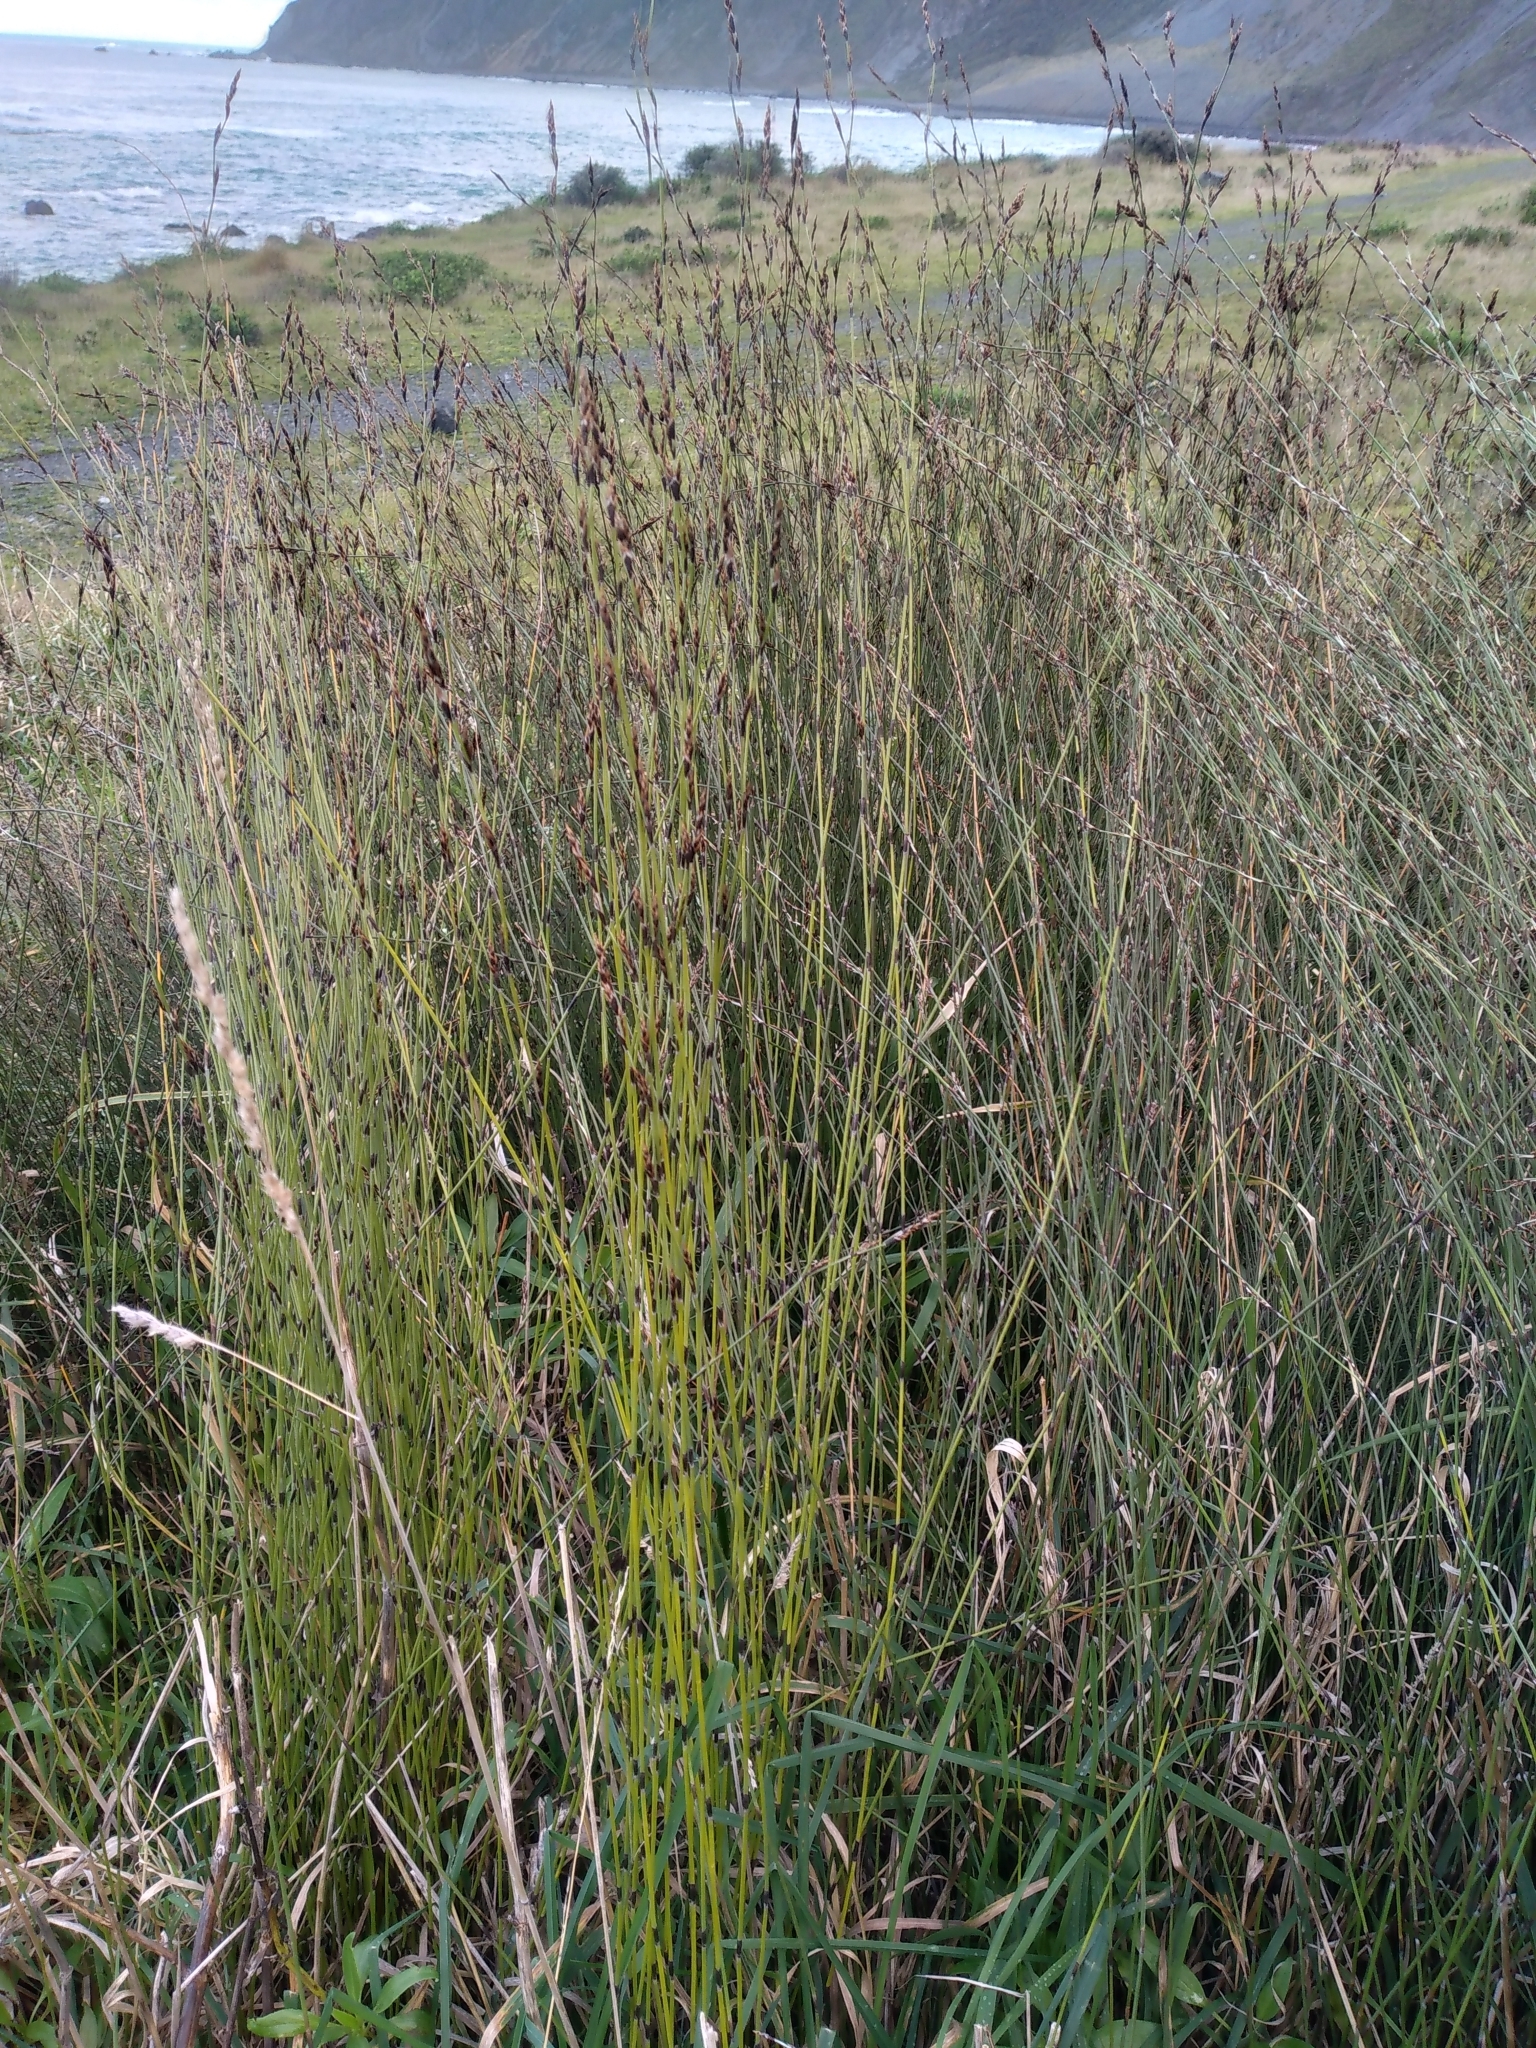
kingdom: Plantae
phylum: Tracheophyta
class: Liliopsida
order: Poales
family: Restionaceae
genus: Apodasmia
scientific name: Apodasmia similis
